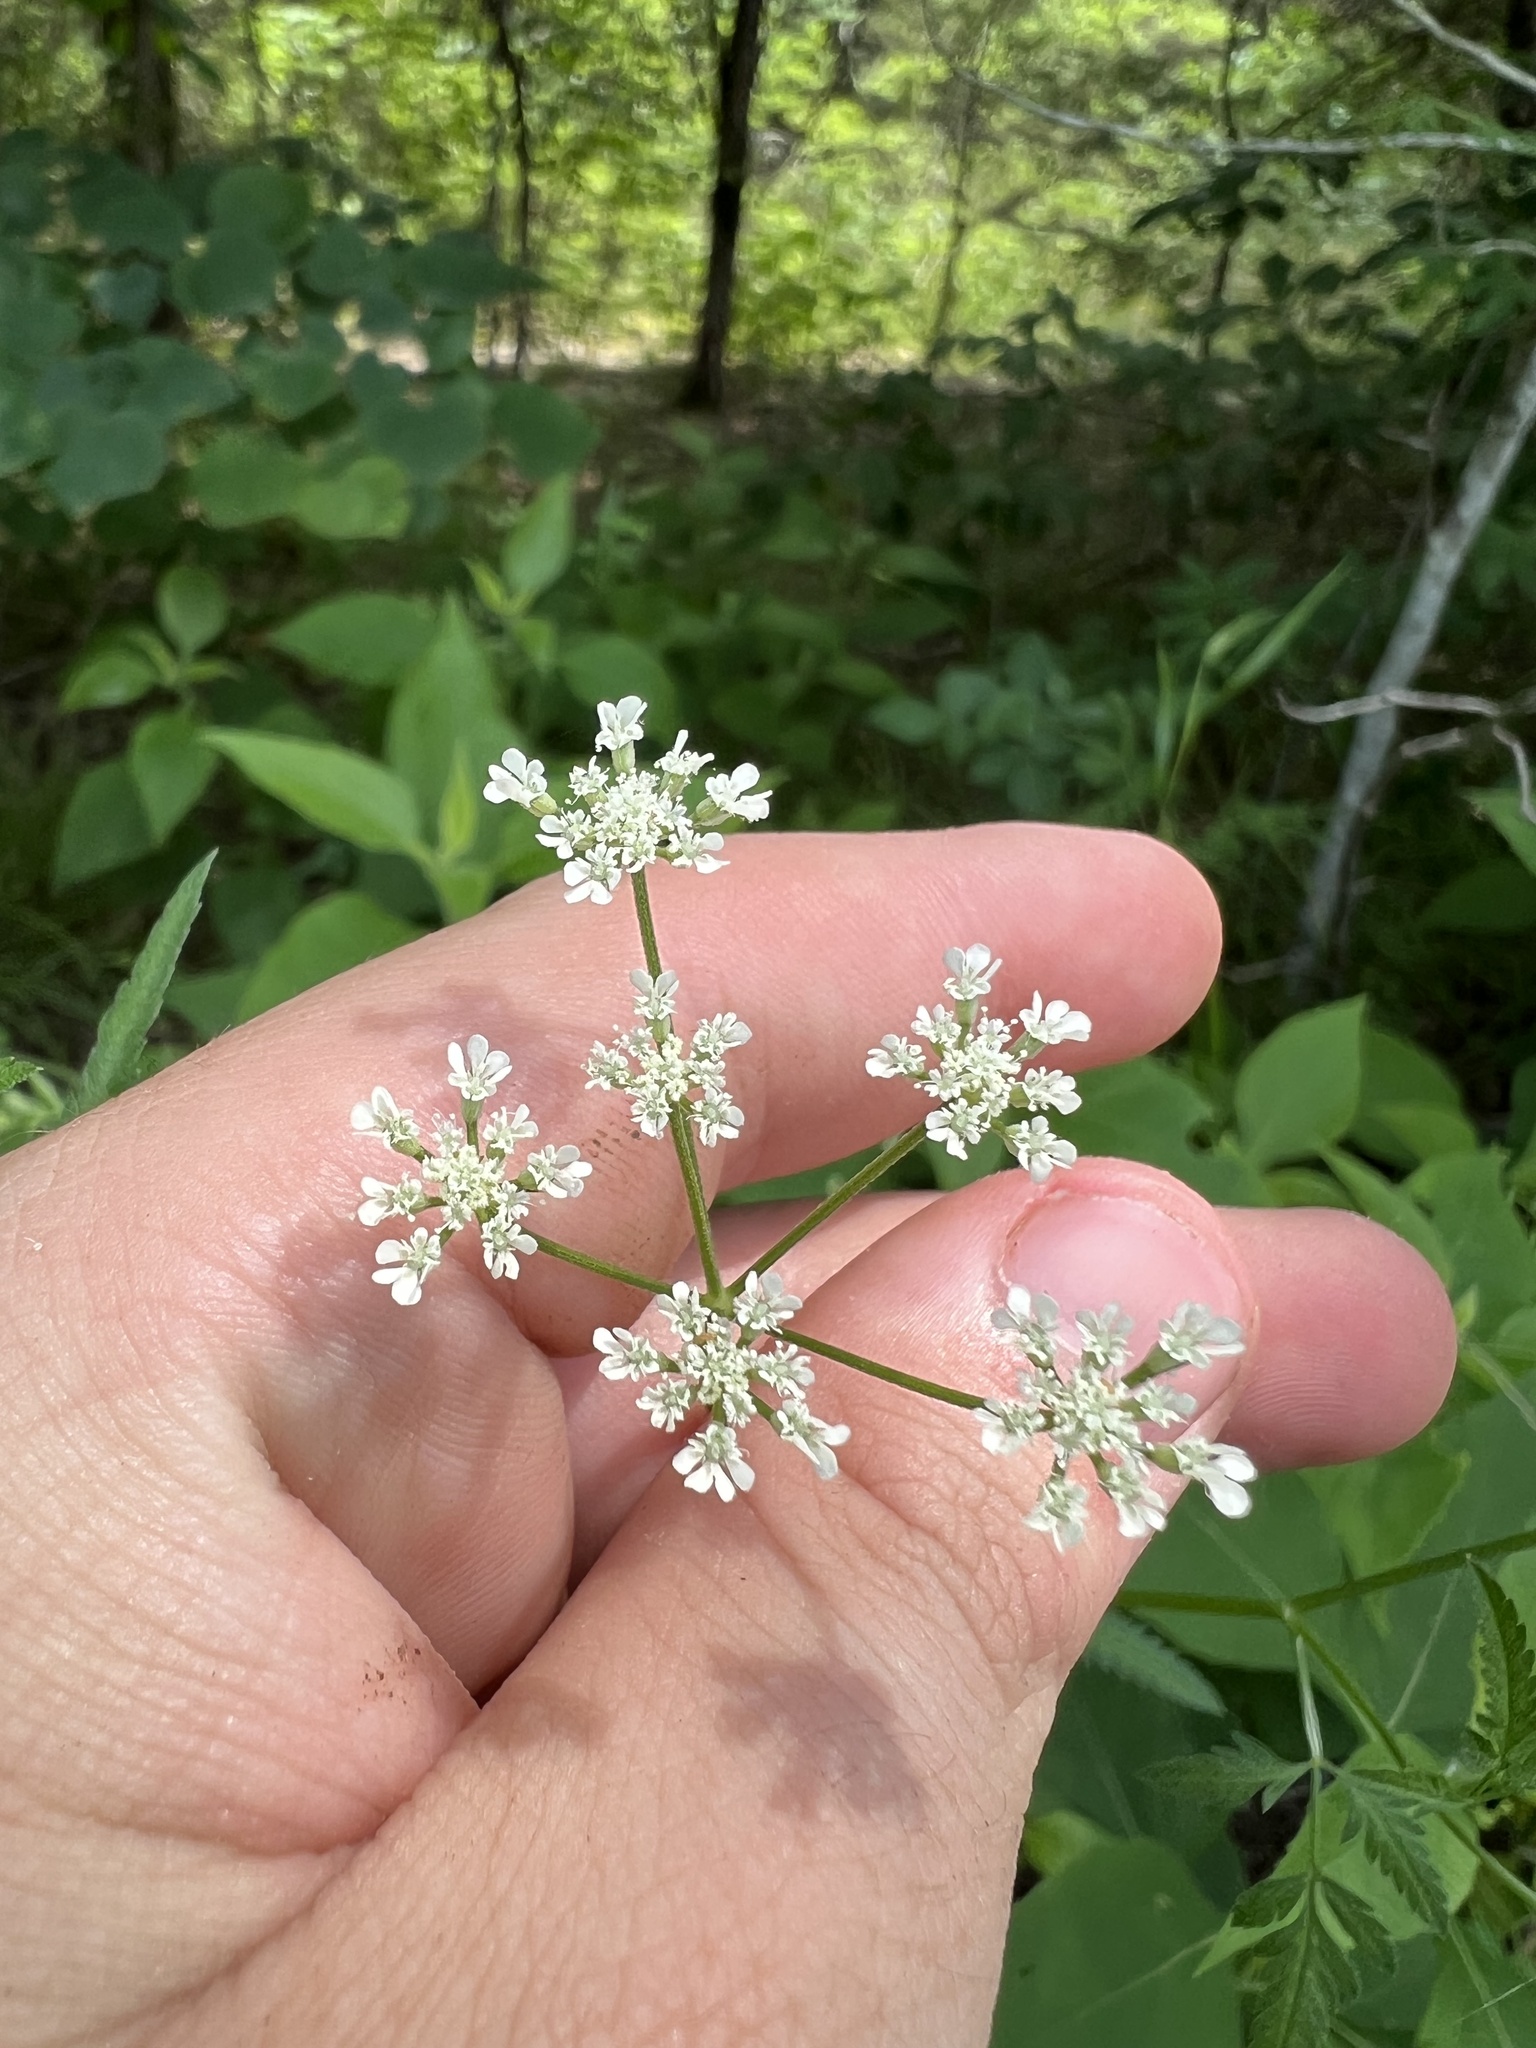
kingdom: Plantae
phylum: Tracheophyta
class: Magnoliopsida
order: Apiales
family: Apiaceae
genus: Torilis
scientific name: Torilis arvensis
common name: Spreading hedge-parsley
